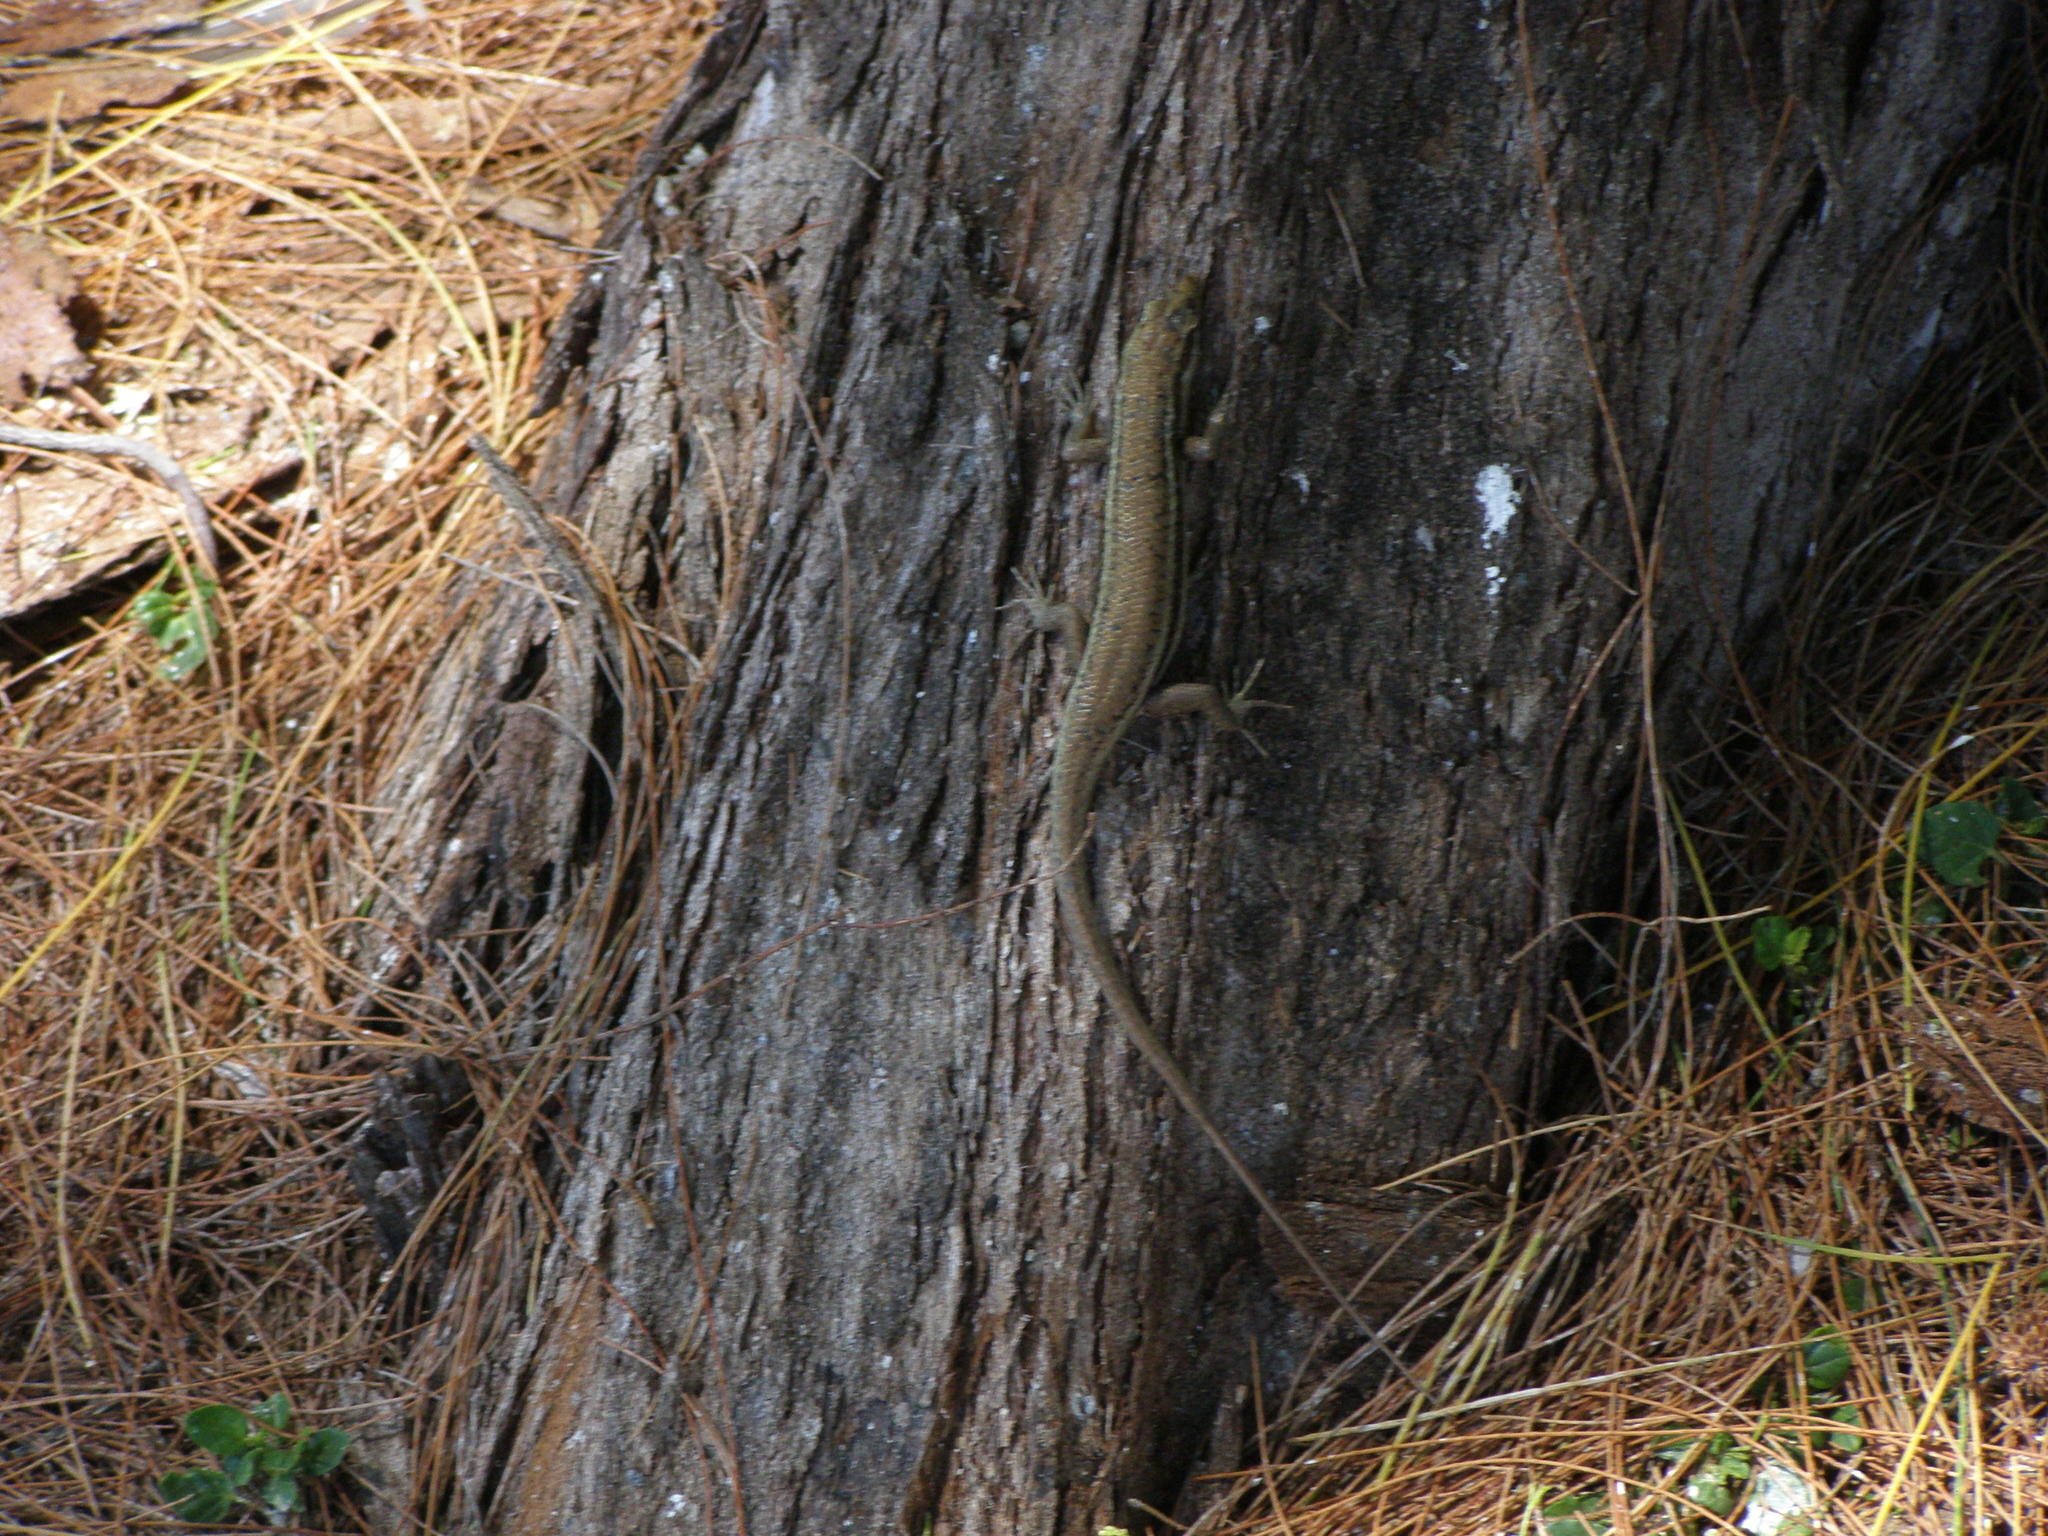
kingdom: Animalia
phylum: Chordata
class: Squamata
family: Scincidae
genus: Trachylepis
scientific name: Trachylepis sechellensis
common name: Seychelles skink
